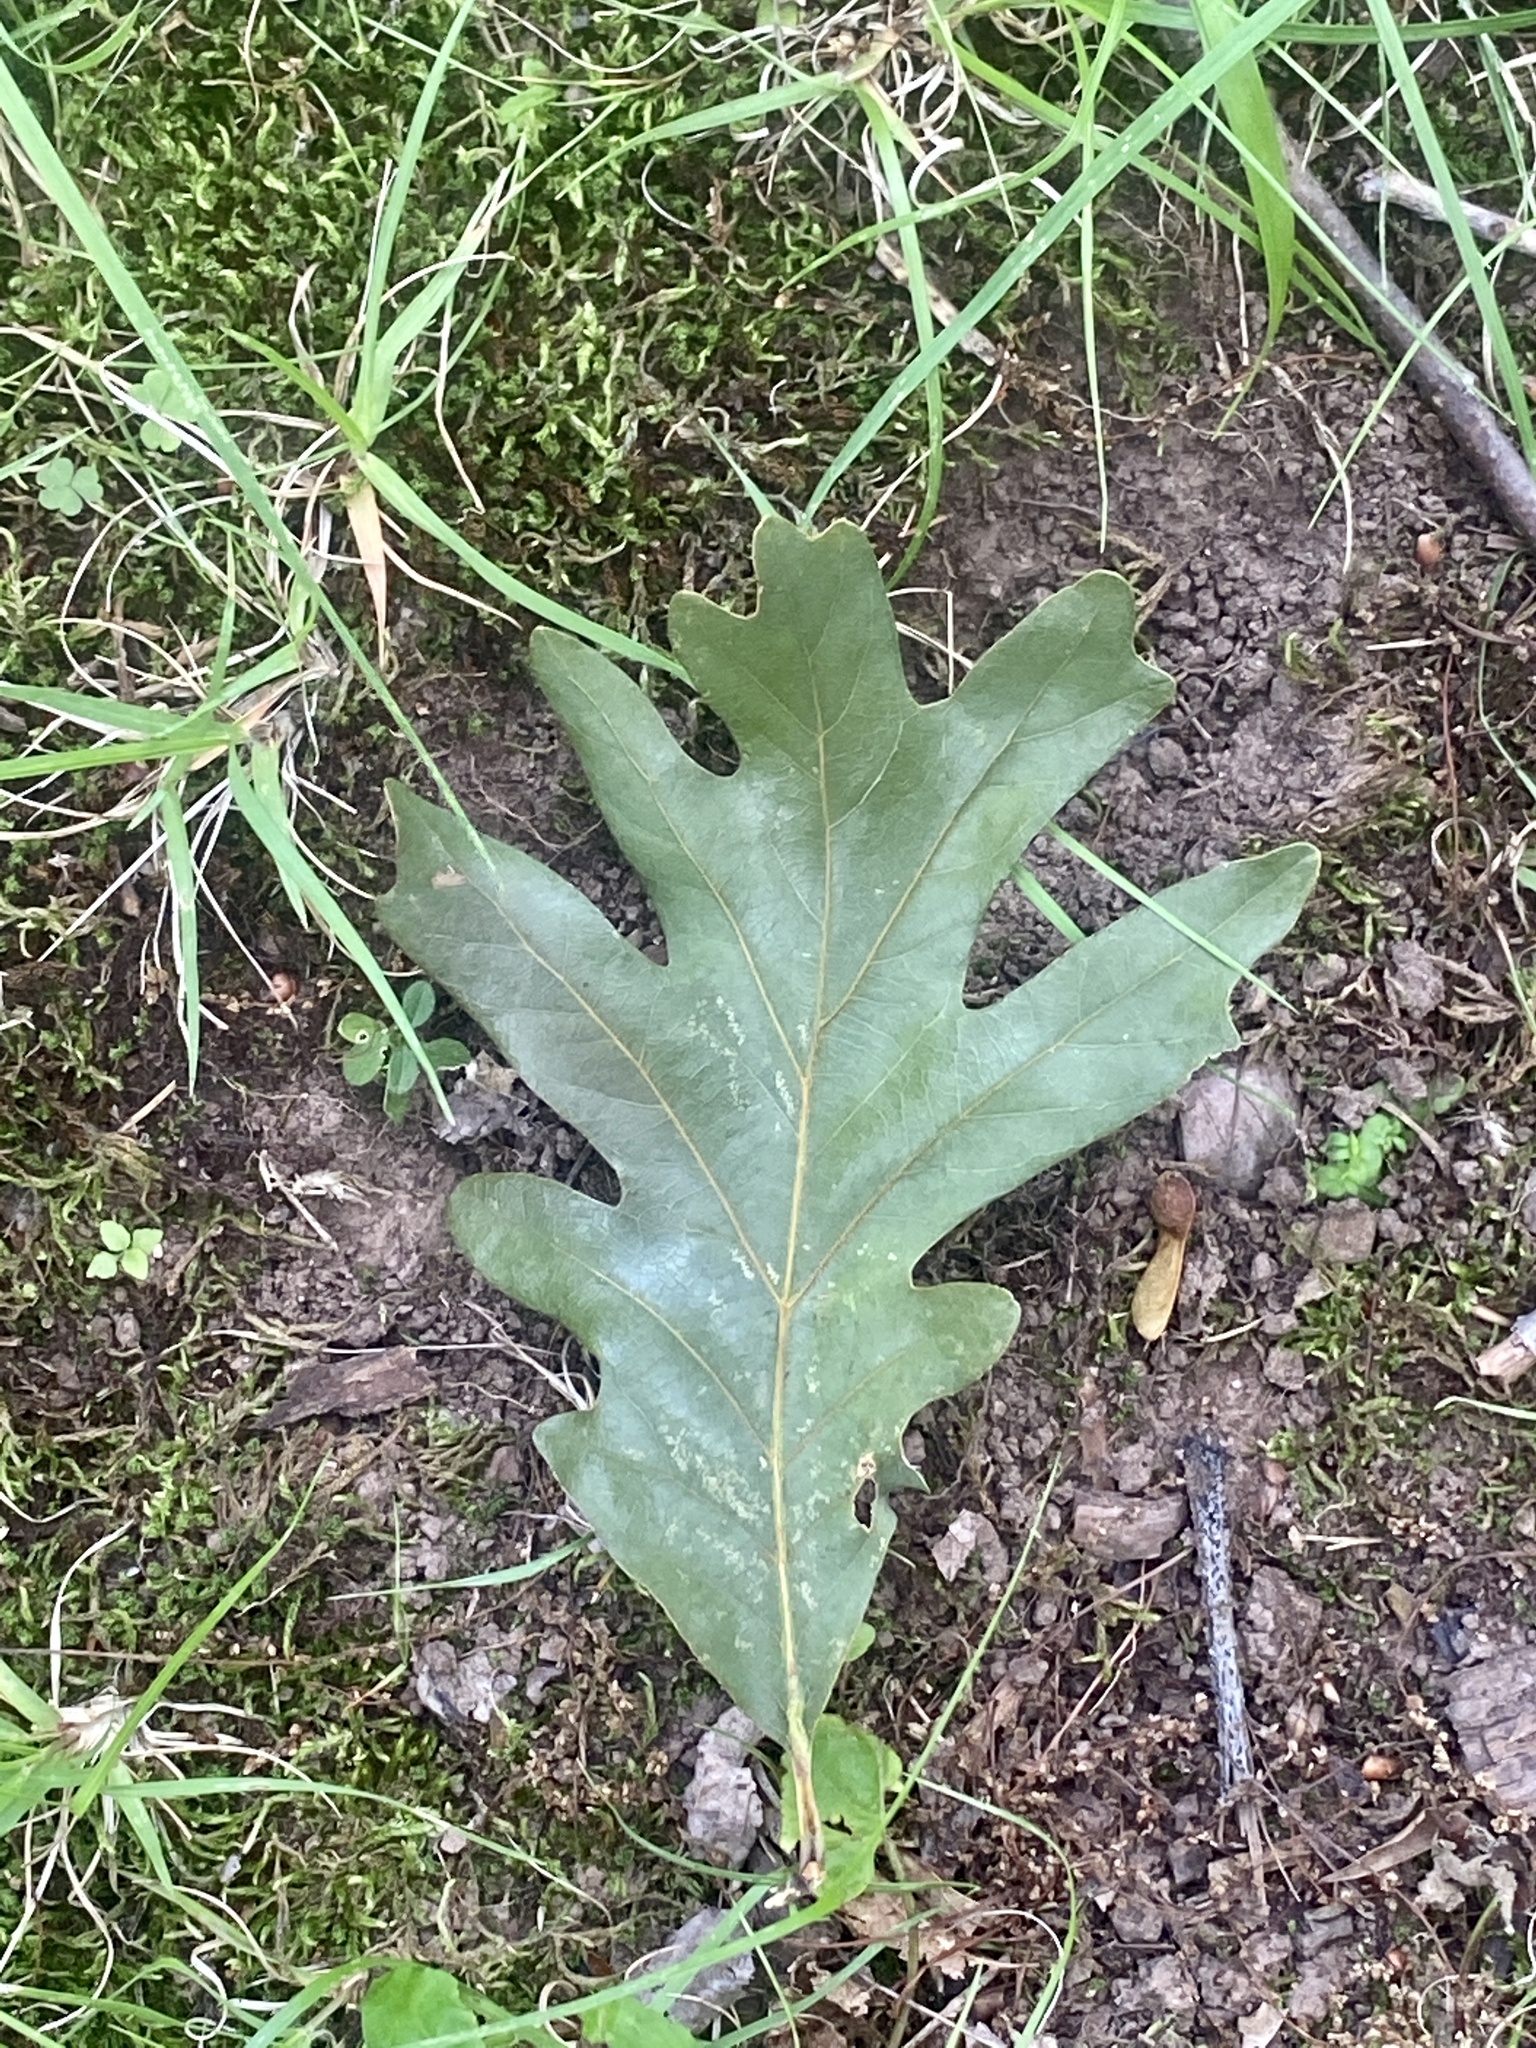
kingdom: Plantae
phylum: Tracheophyta
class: Magnoliopsida
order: Fagales
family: Fagaceae
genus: Quercus
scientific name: Quercus alba
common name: White oak
